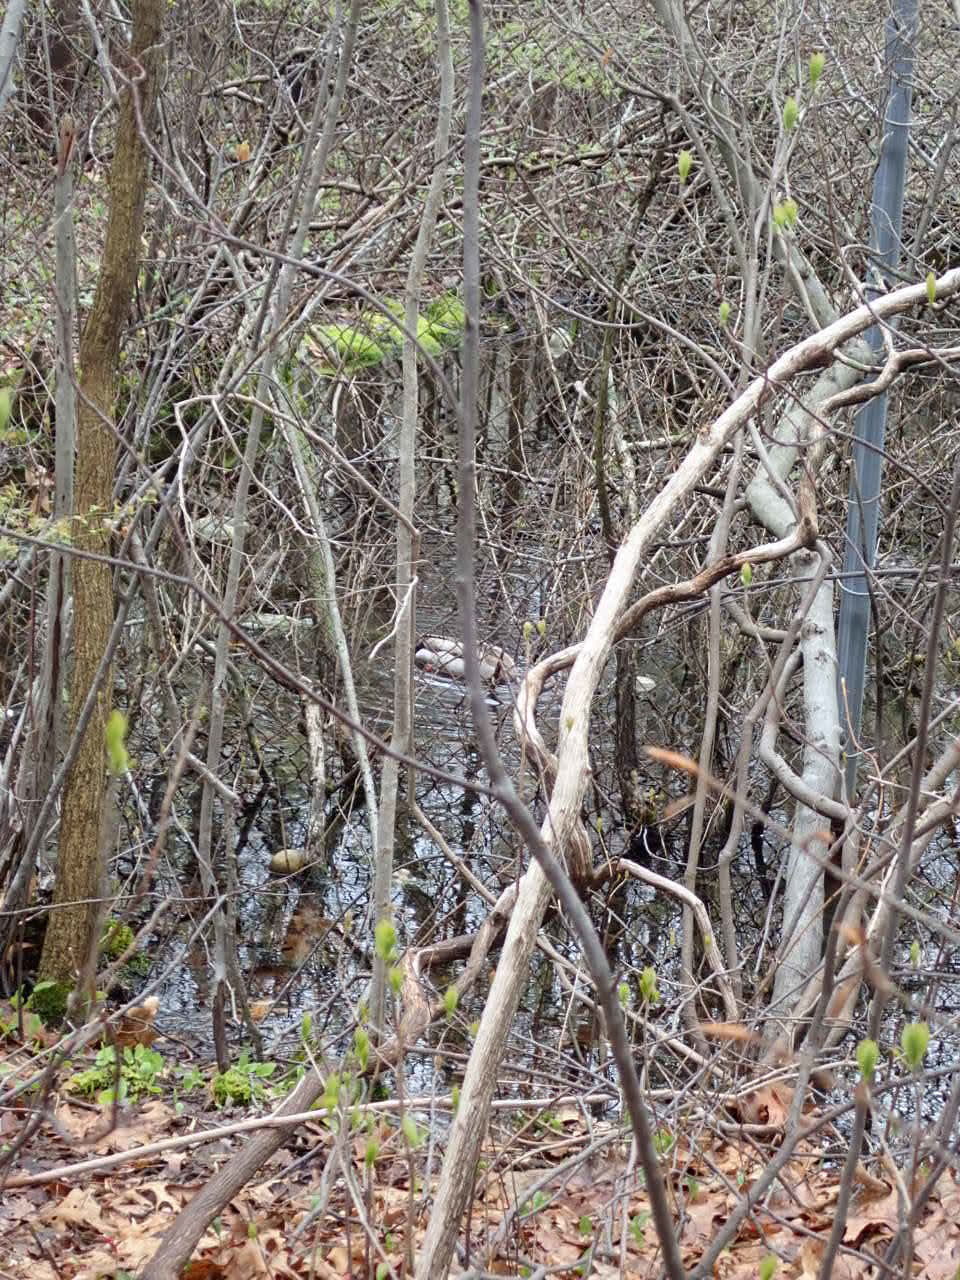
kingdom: Animalia
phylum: Chordata
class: Aves
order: Anseriformes
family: Anatidae
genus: Anas
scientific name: Anas platyrhynchos
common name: Mallard
